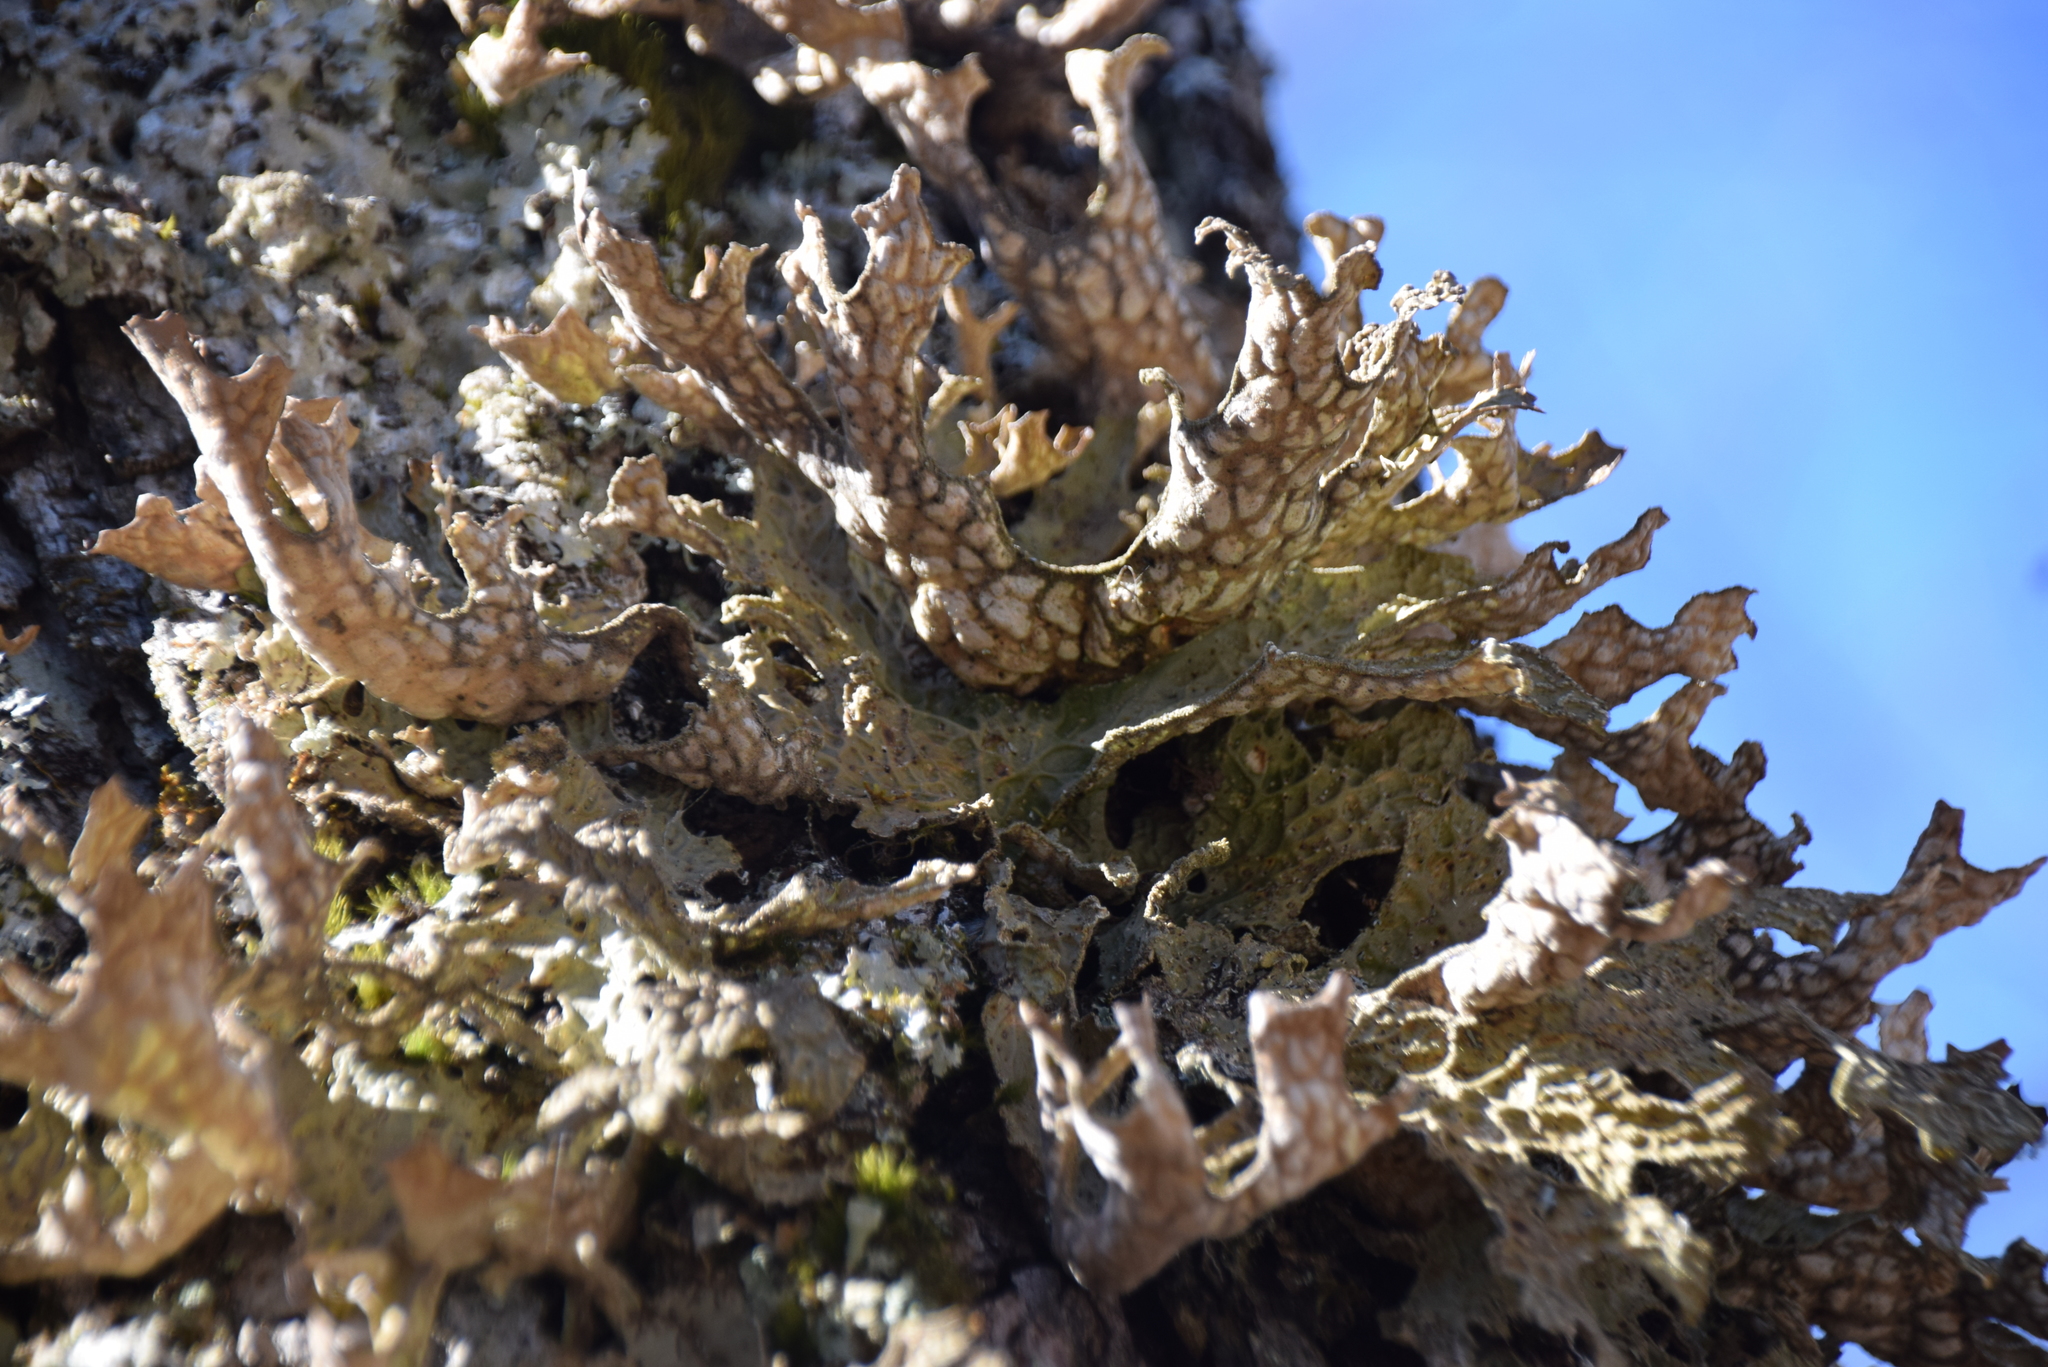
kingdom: Fungi
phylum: Ascomycota
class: Lecanoromycetes
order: Peltigerales
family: Lobariaceae
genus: Lobaria
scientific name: Lobaria pulmonaria
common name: Lungwort
